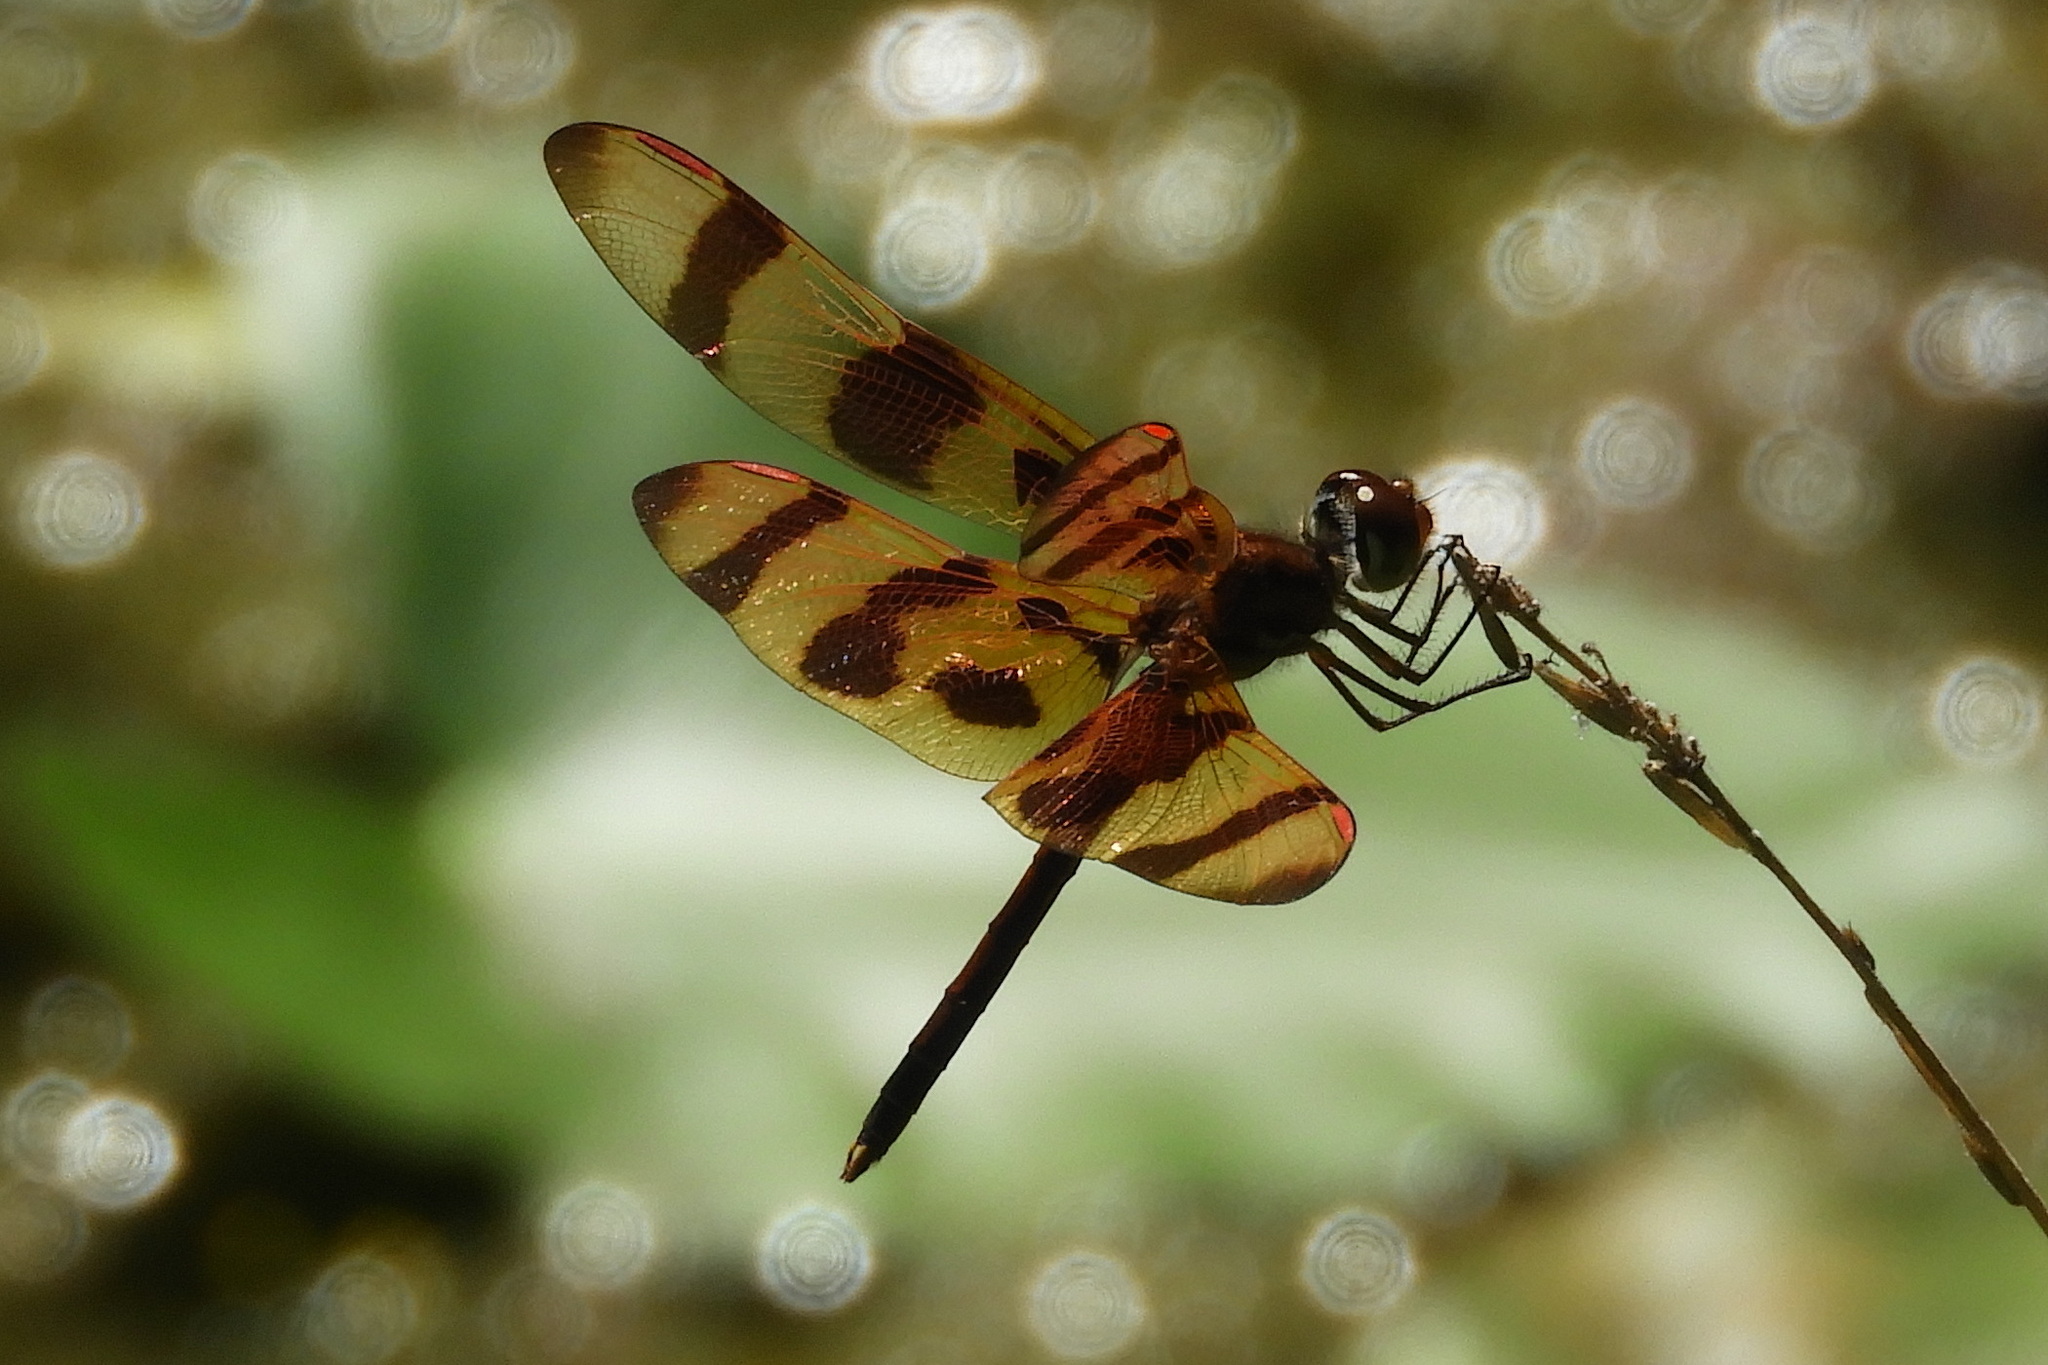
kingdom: Animalia
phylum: Arthropoda
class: Insecta
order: Odonata
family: Libellulidae
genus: Celithemis
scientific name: Celithemis eponina
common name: Halloween pennant
